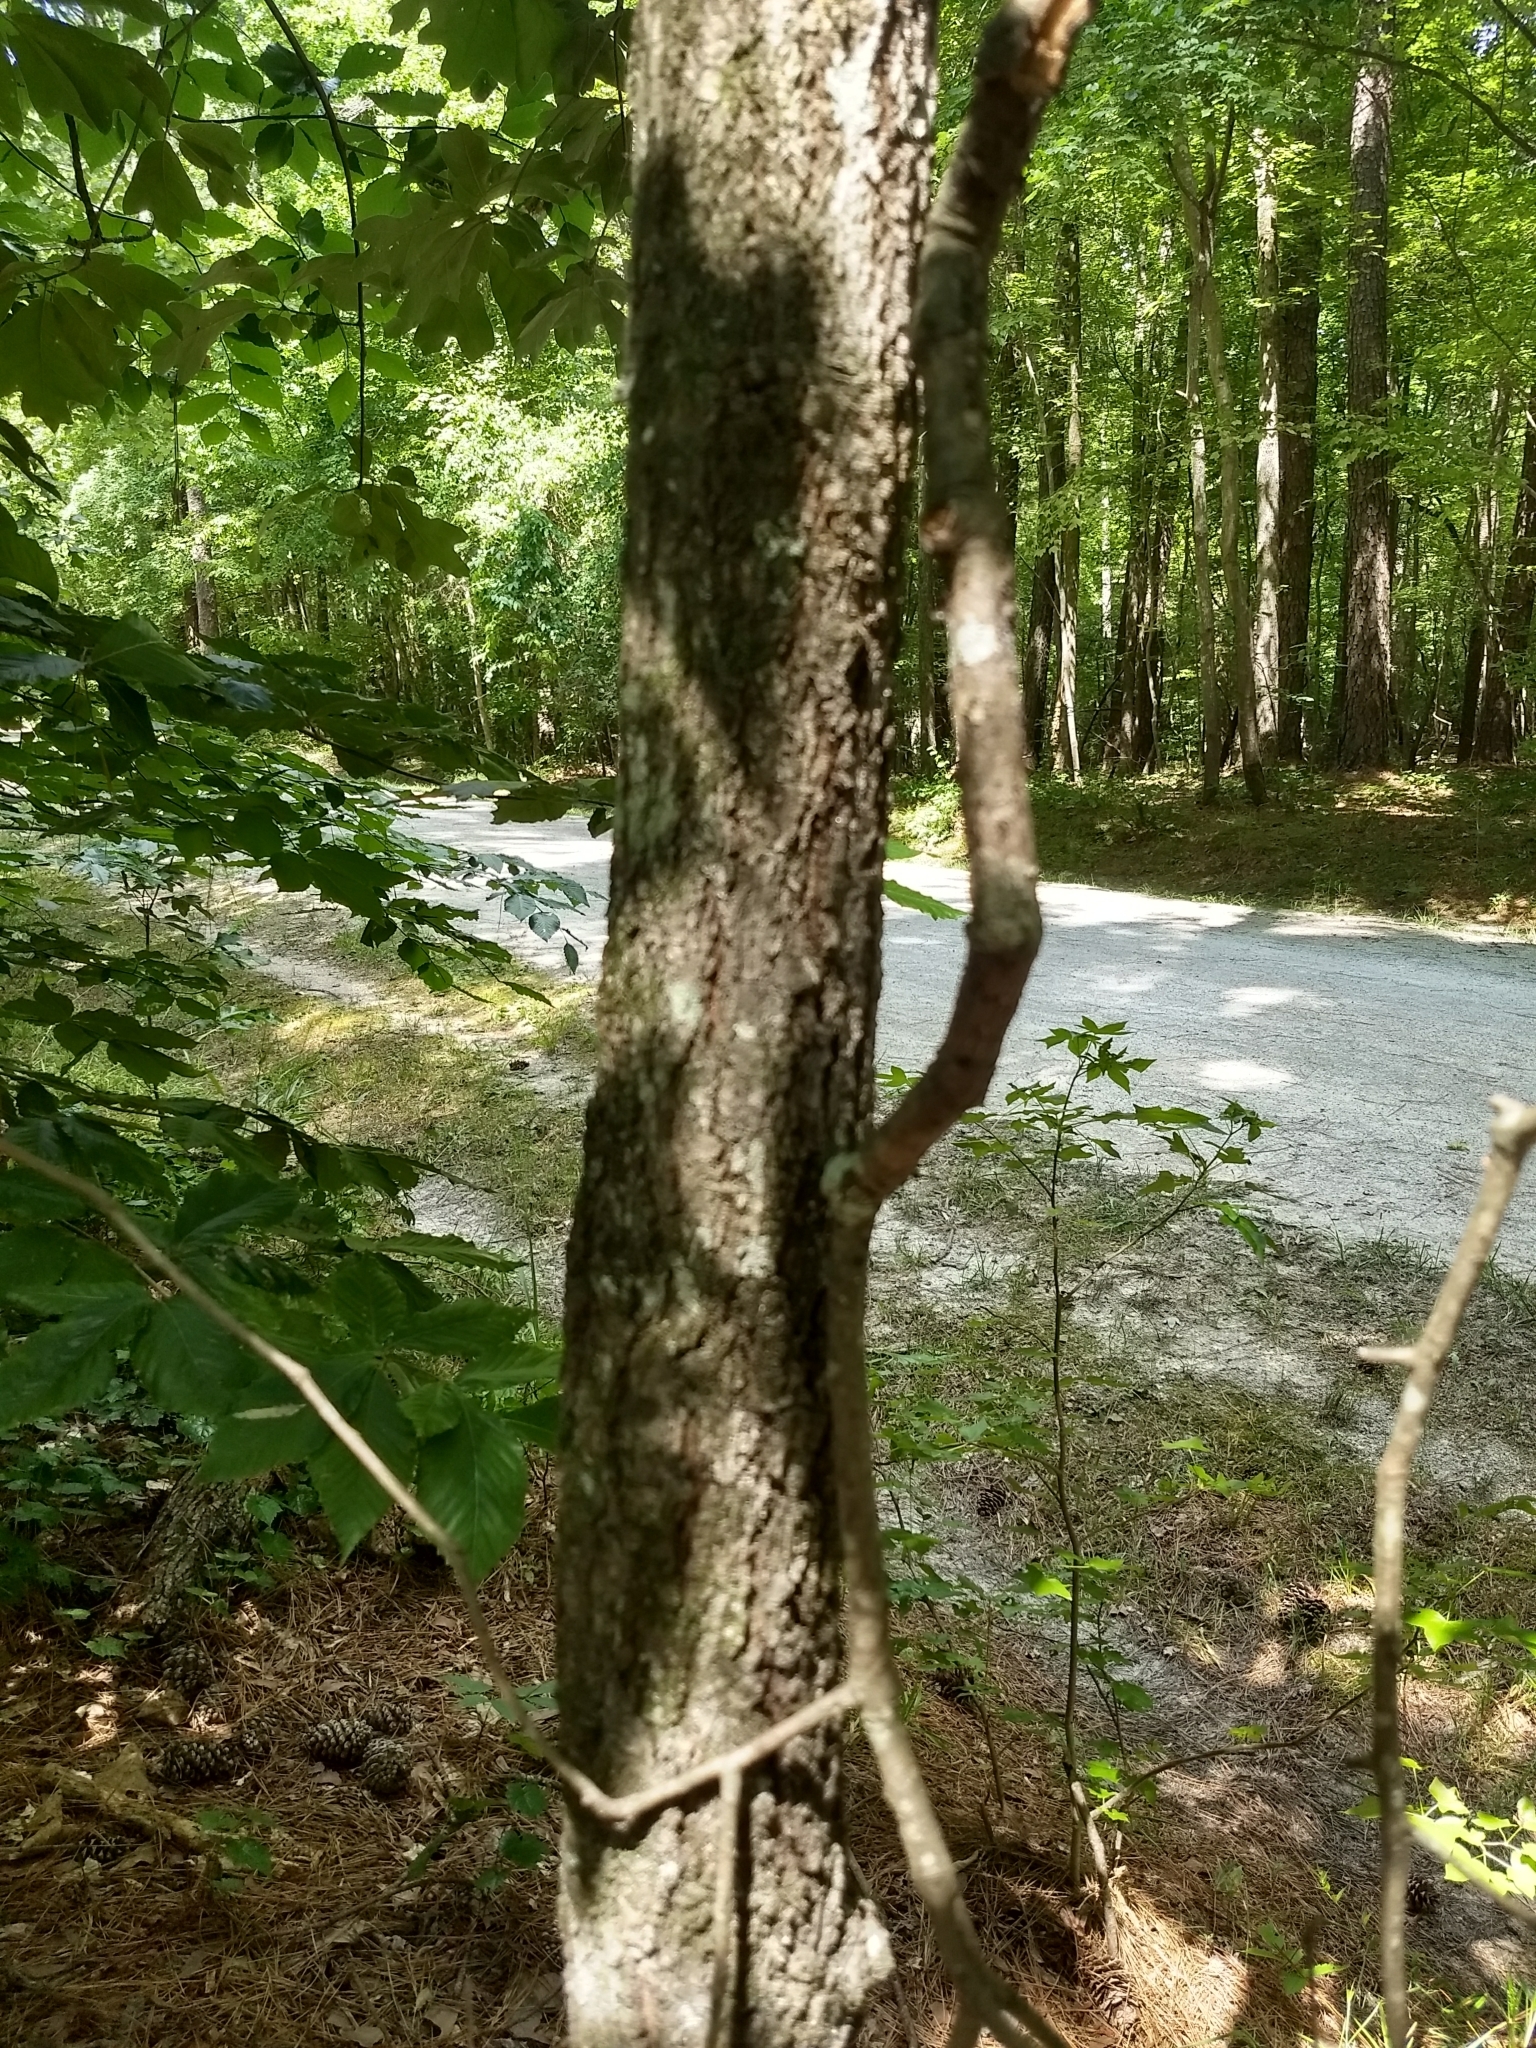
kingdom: Plantae
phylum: Tracheophyta
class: Magnoliopsida
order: Fagales
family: Fagaceae
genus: Quercus
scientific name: Quercus falcata
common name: Southern red oak
